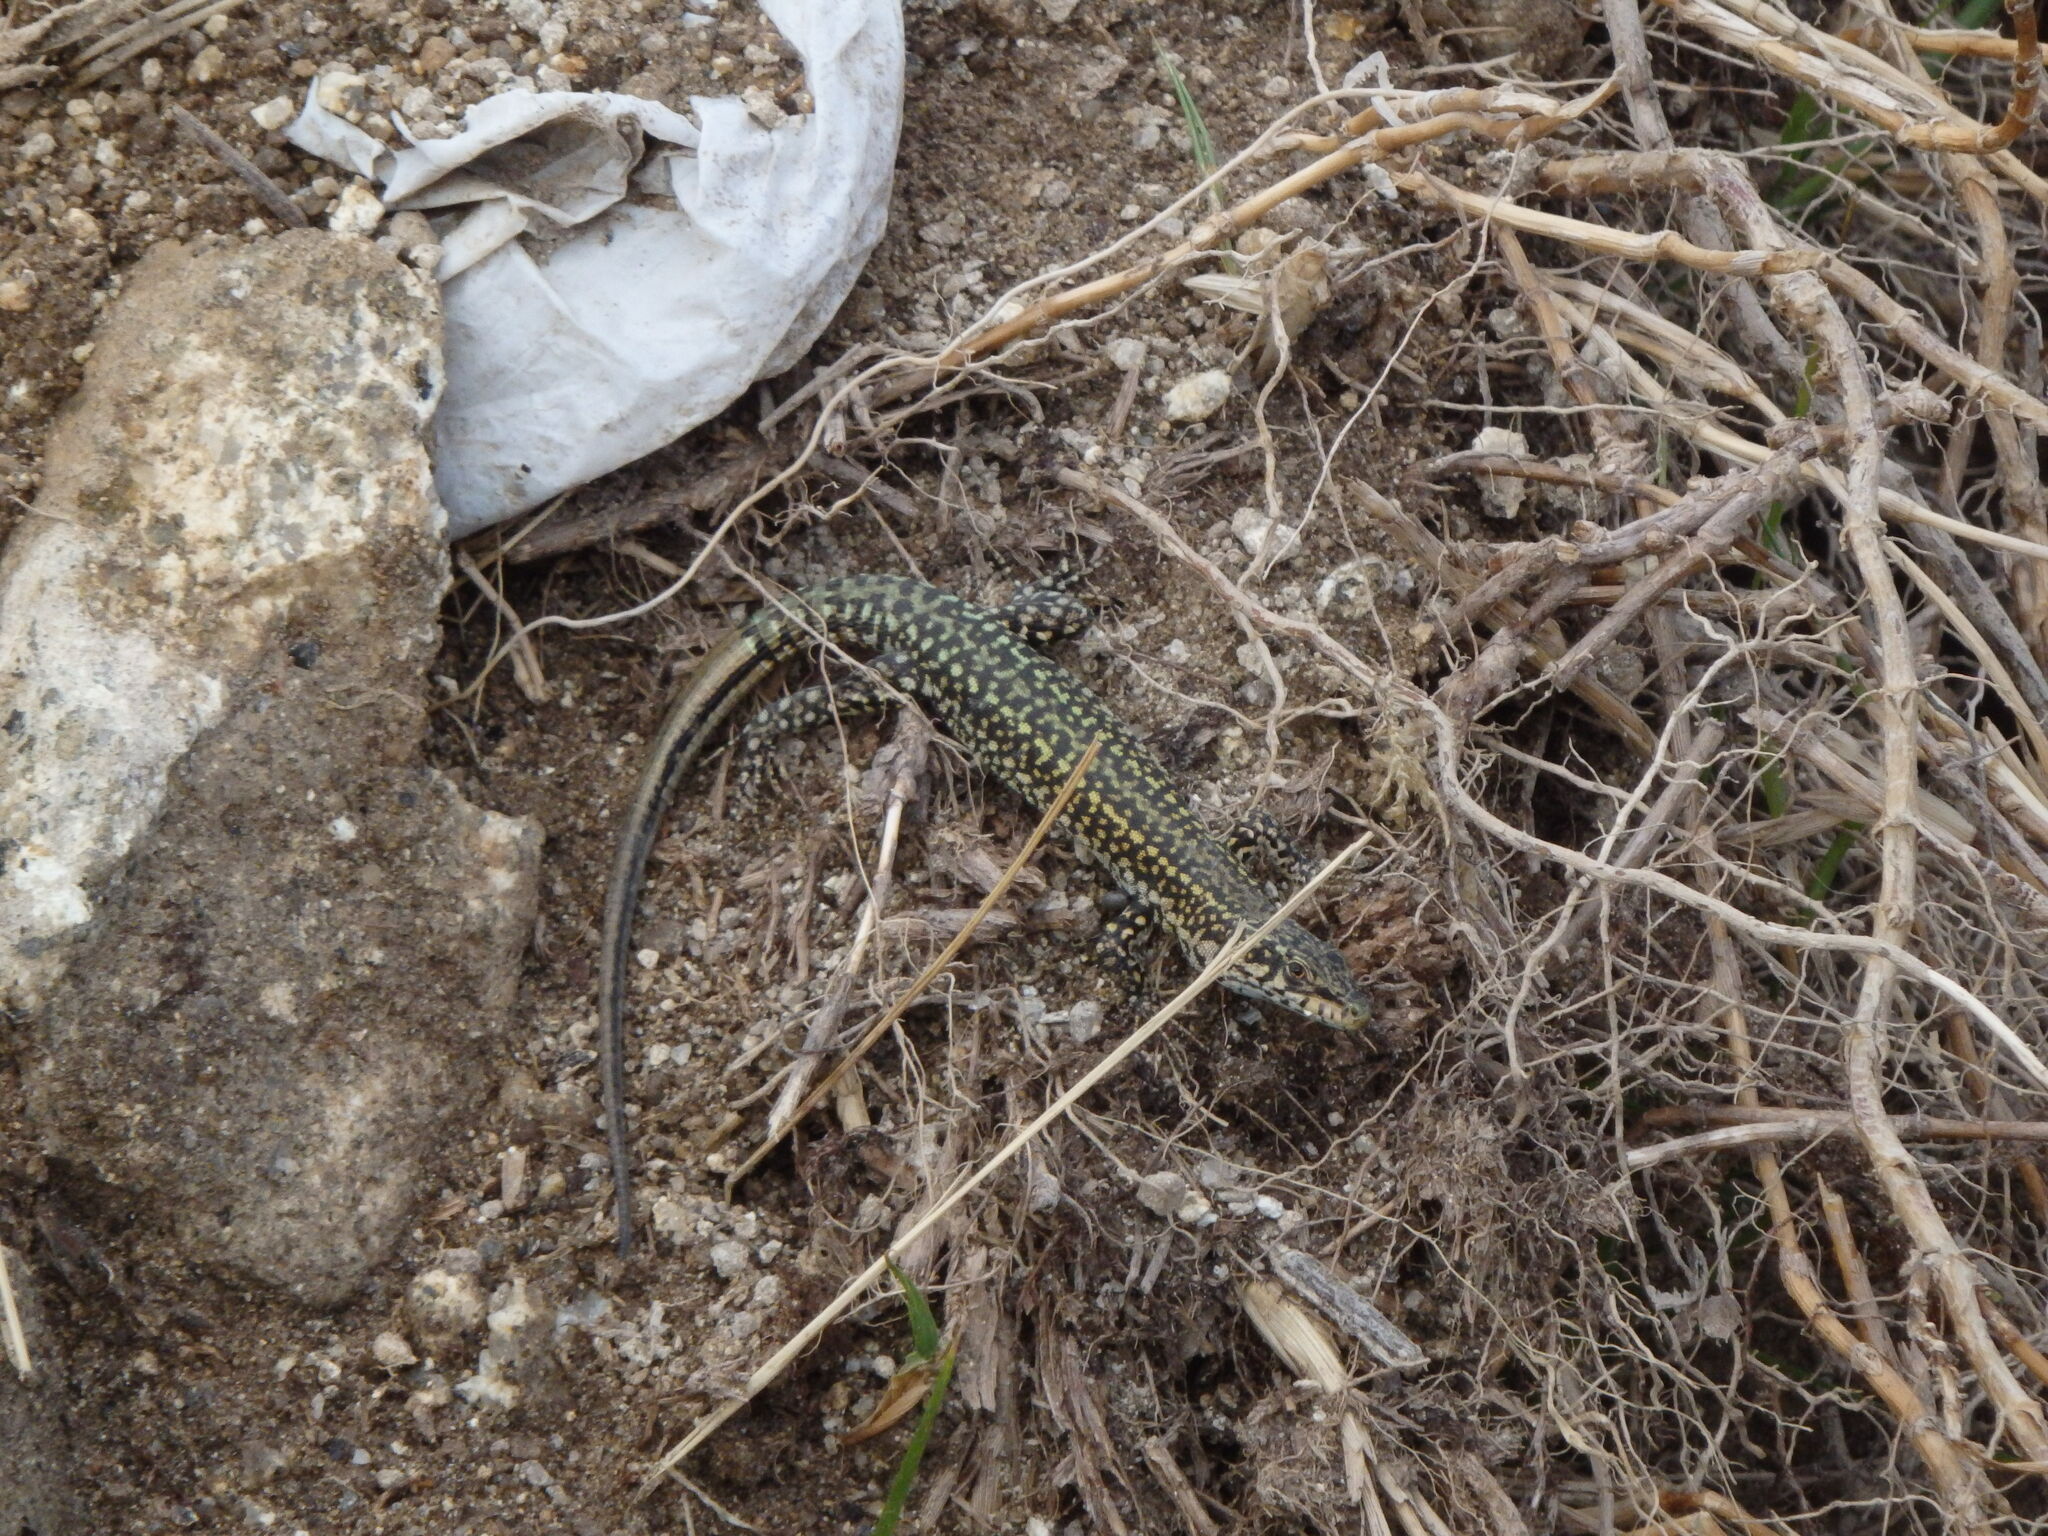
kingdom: Animalia
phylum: Chordata
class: Squamata
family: Lacertidae
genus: Podarcis
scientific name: Podarcis
